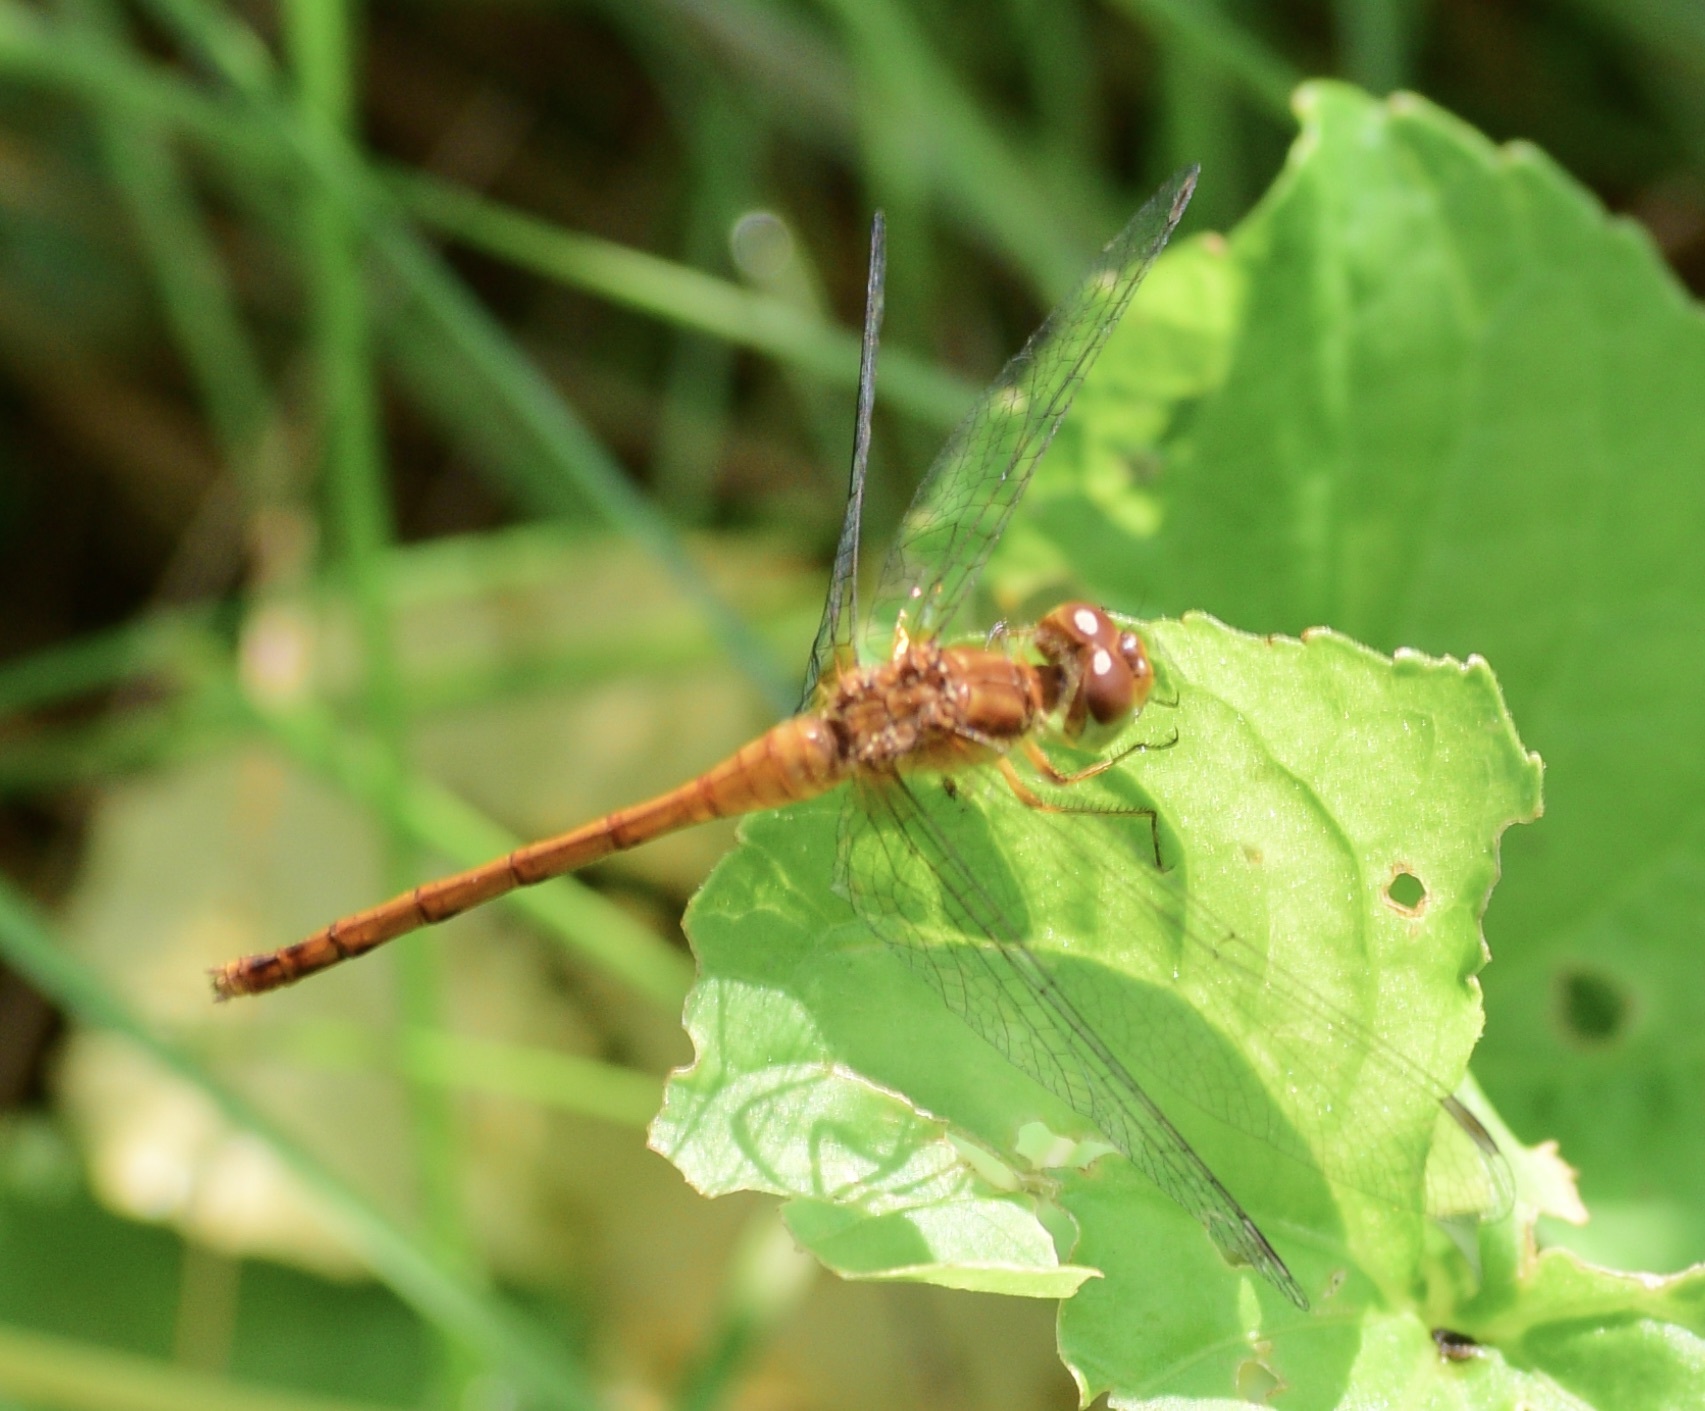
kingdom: Animalia
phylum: Arthropoda
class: Insecta
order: Odonata
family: Libellulidae
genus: Sympetrum
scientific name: Sympetrum vicinum
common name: Autumn meadowhawk
